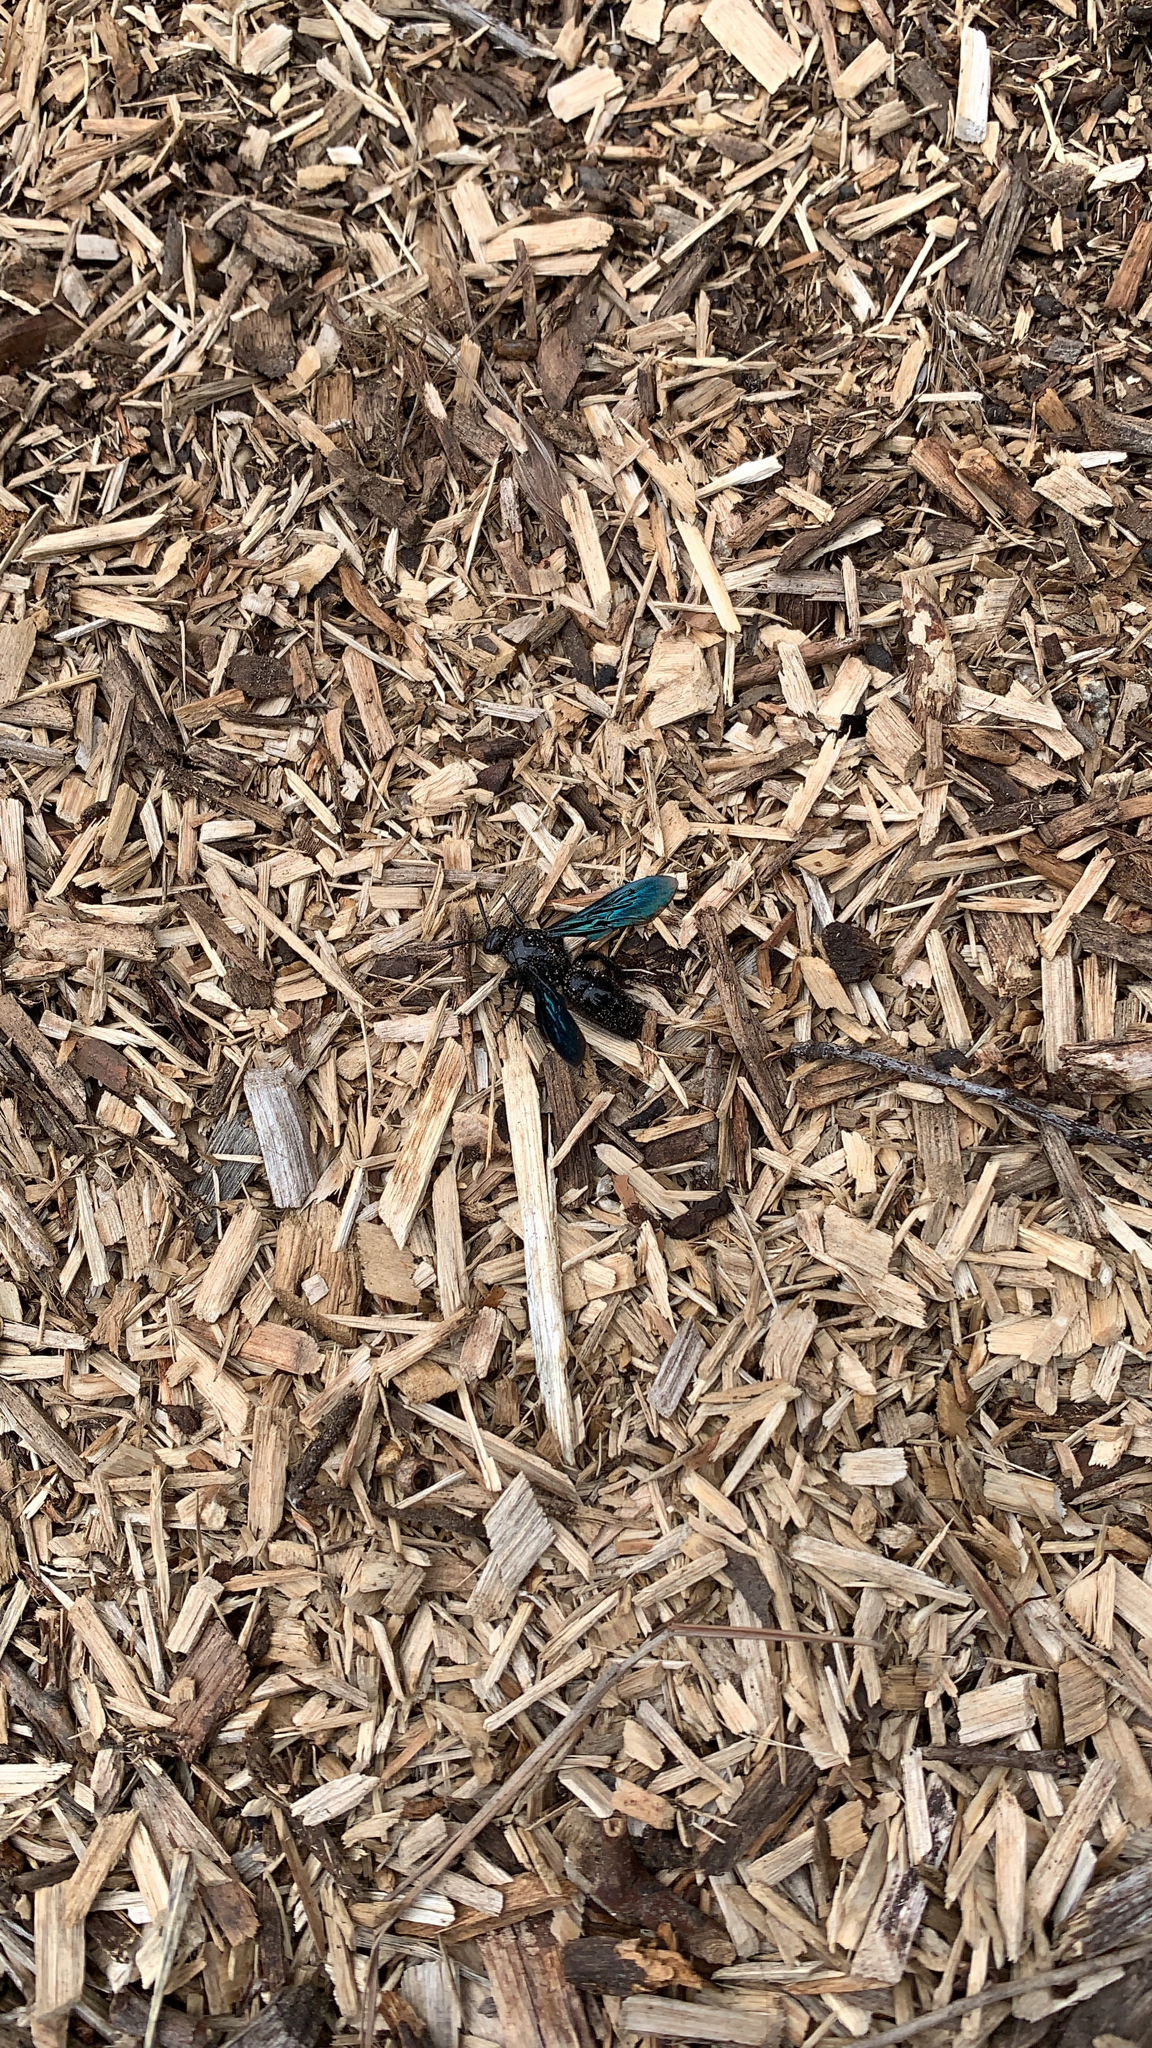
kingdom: Animalia
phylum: Arthropoda
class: Insecta
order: Hymenoptera
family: Scoliidae
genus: Austroscolia
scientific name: Austroscolia
